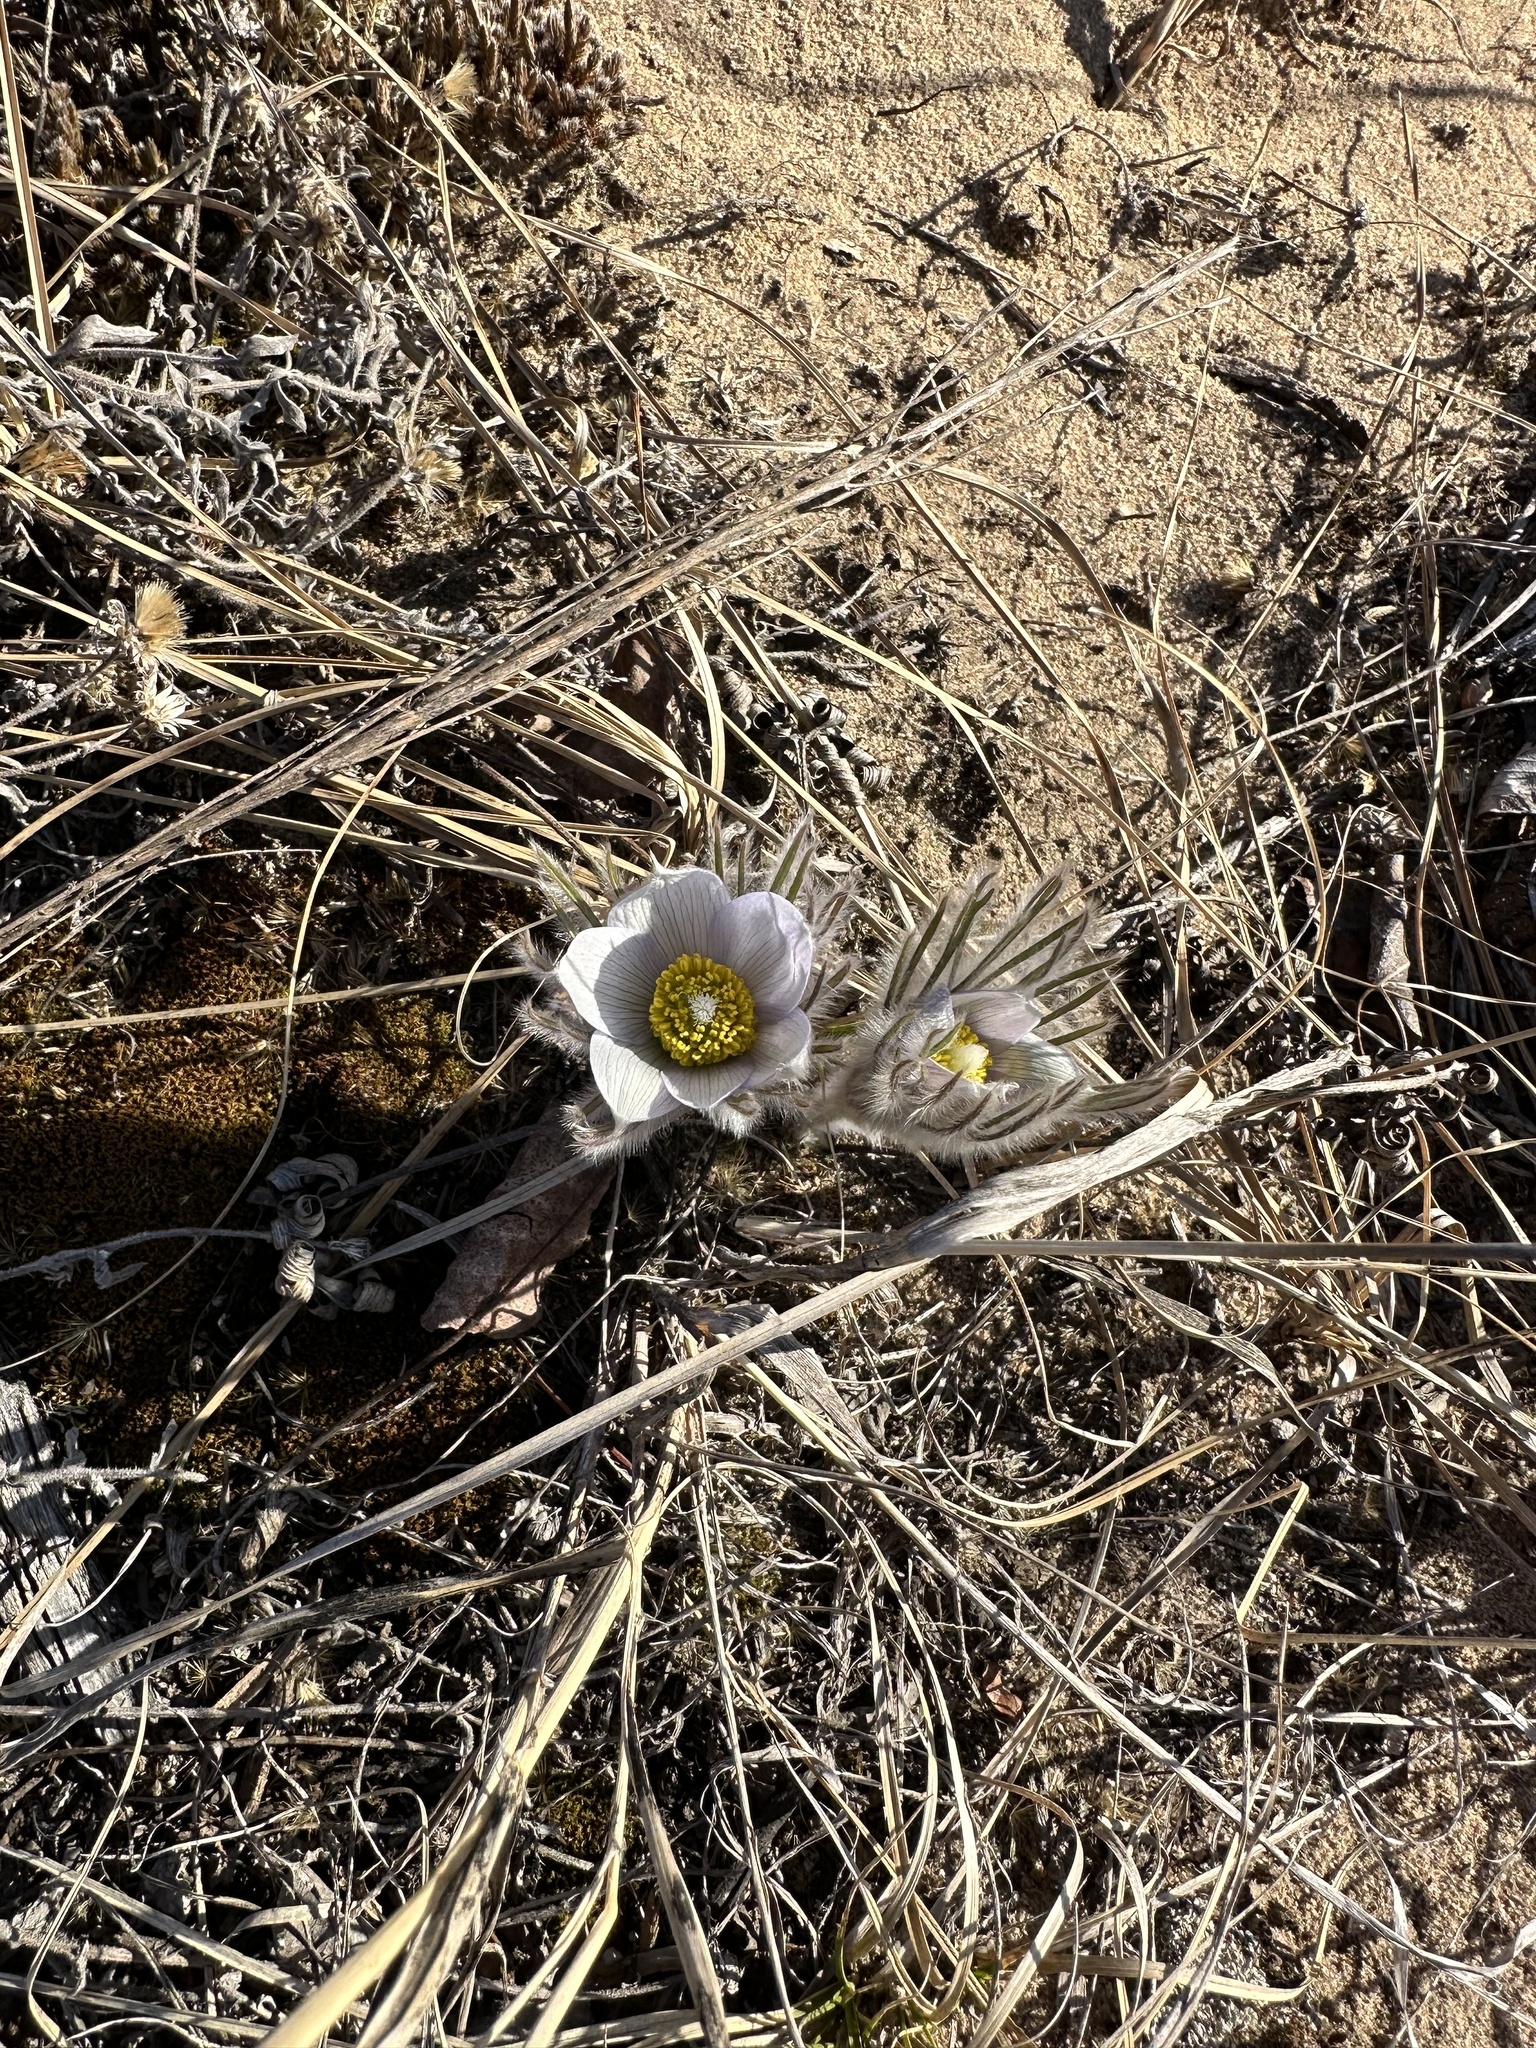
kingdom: Plantae
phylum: Tracheophyta
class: Magnoliopsida
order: Ranunculales
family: Ranunculaceae
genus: Pulsatilla
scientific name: Pulsatilla nuttalliana
